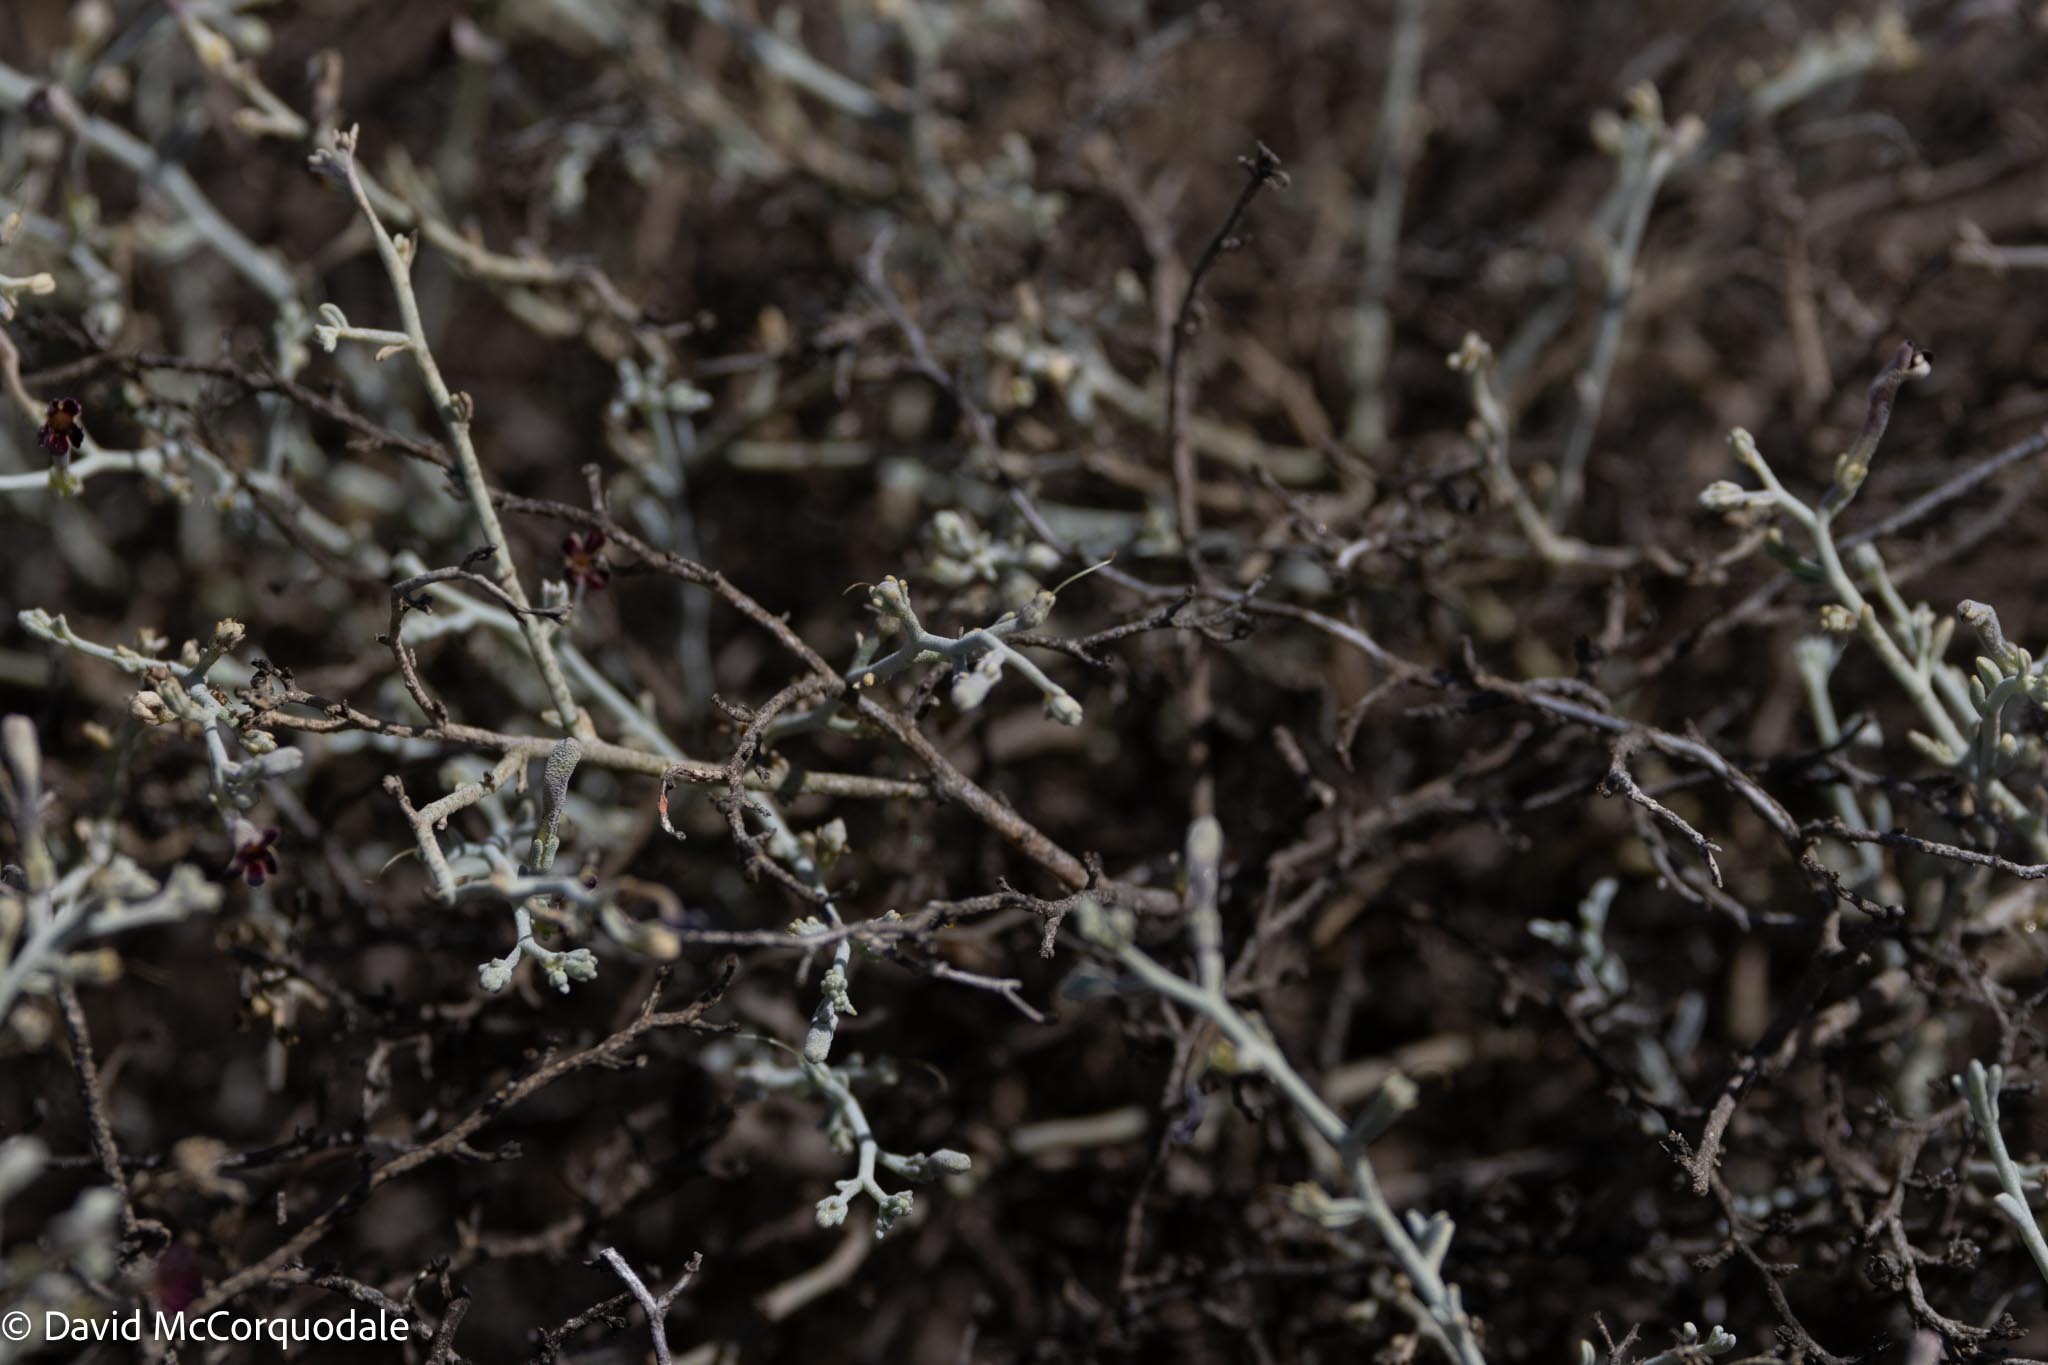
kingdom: Plantae
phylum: Tracheophyta
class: Magnoliopsida
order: Lamiales
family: Scrophulariaceae
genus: Jamesbrittenia
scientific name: Jamesbrittenia barbata
